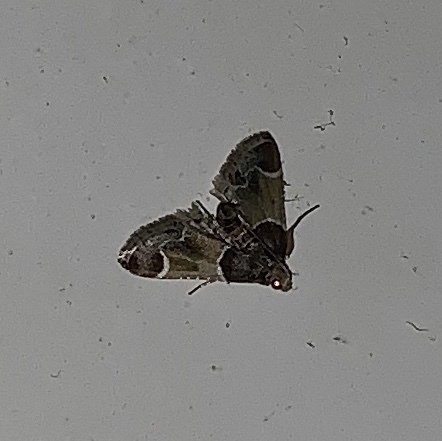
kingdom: Animalia
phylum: Arthropoda
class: Insecta
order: Lepidoptera
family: Pyralidae
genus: Pyralis
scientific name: Pyralis farinalis
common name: Meal moth
